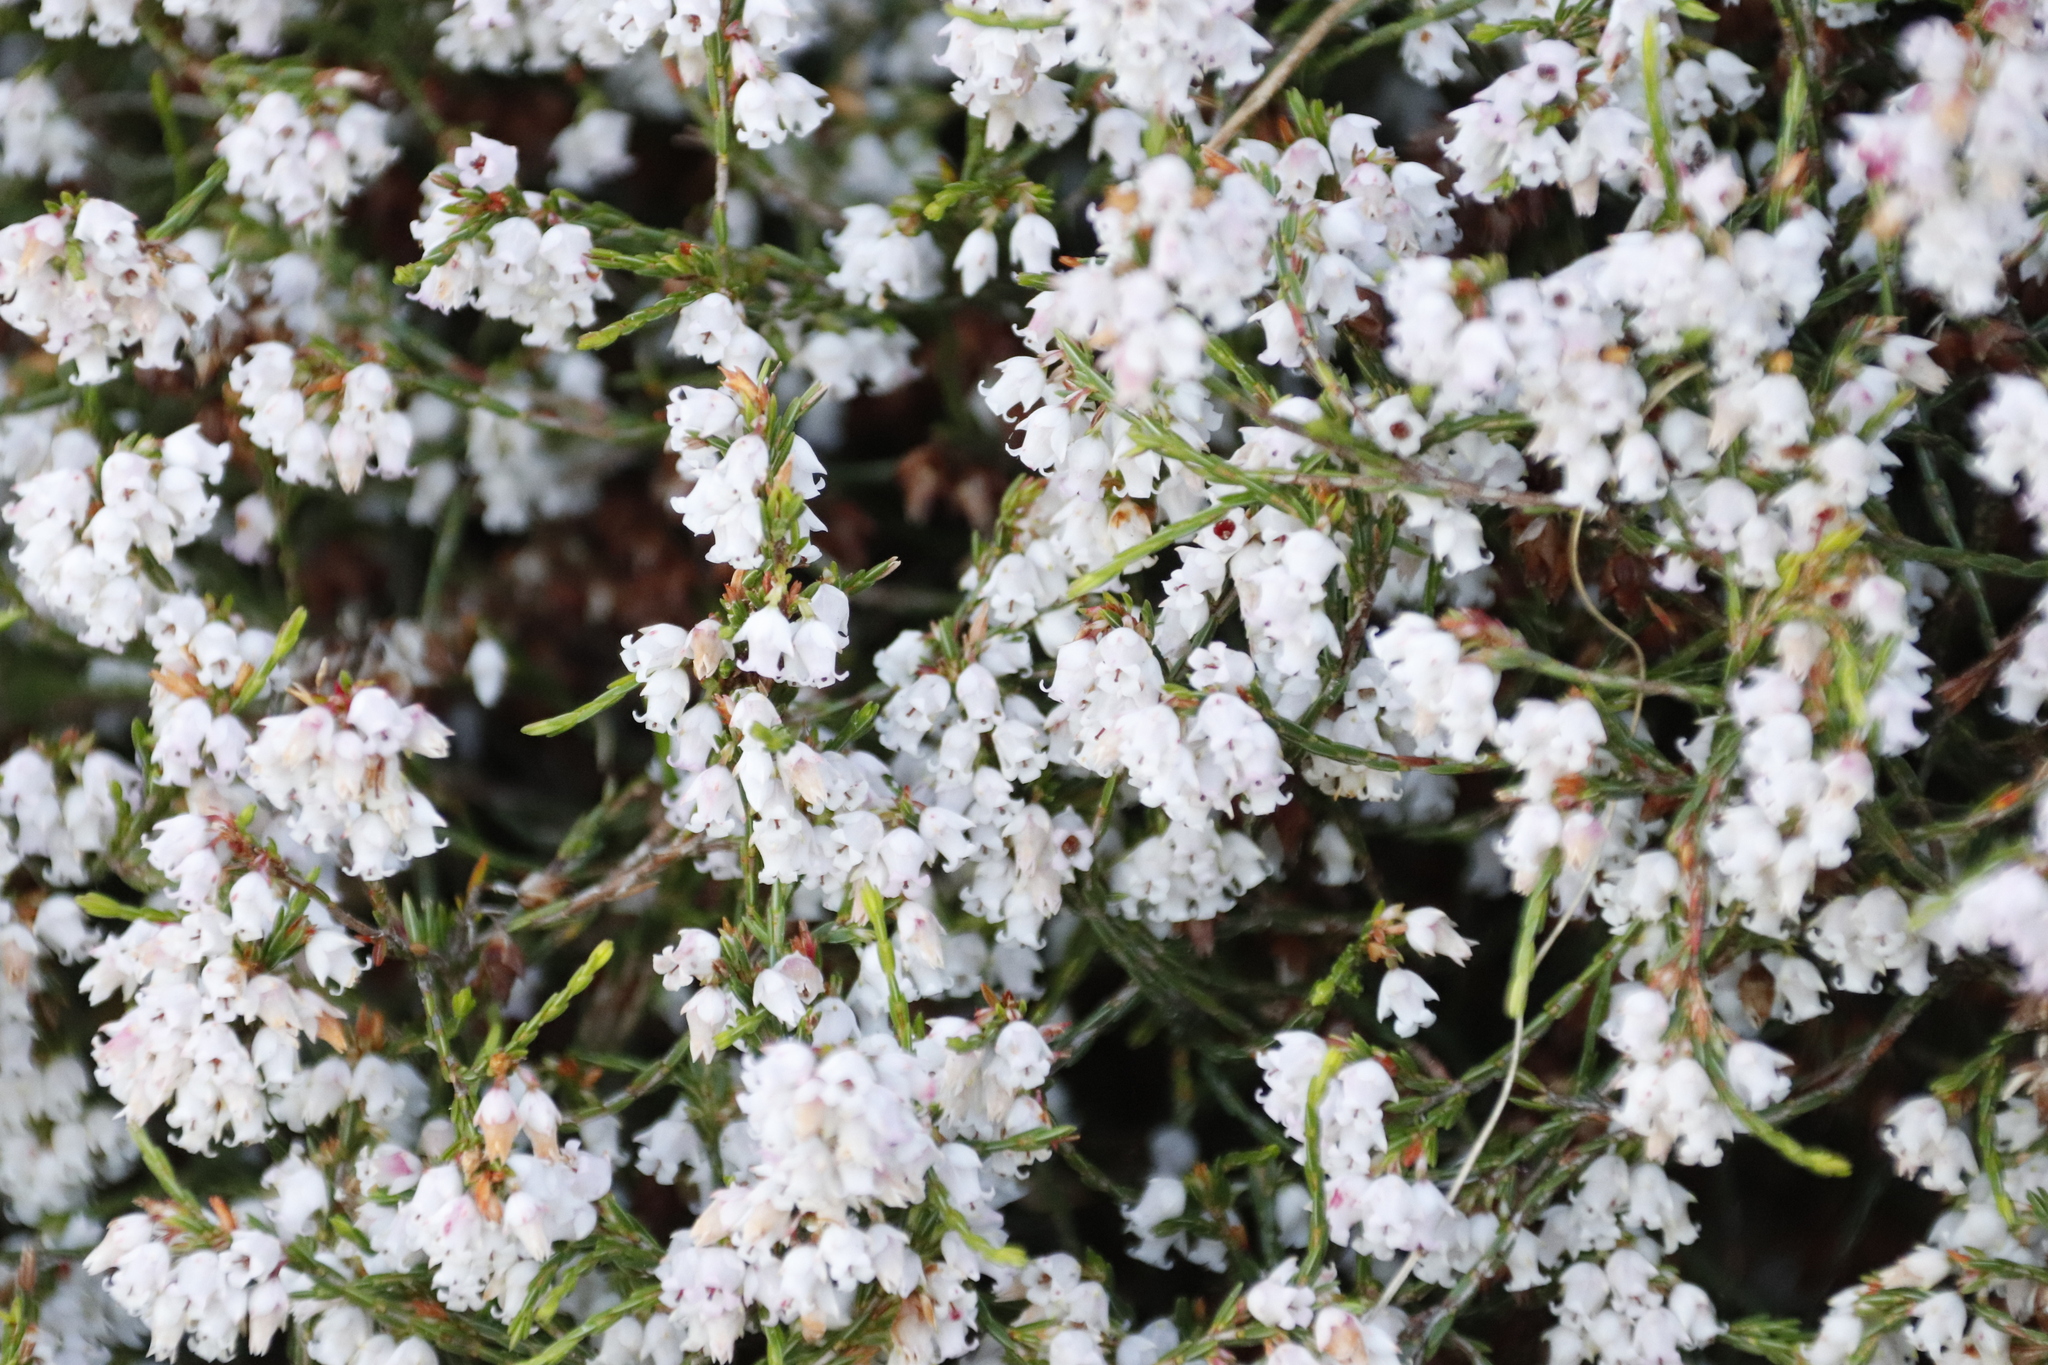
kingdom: Plantae
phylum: Tracheophyta
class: Magnoliopsida
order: Ericales
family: Ericaceae
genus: Erica
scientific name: Erica tenuifolia
